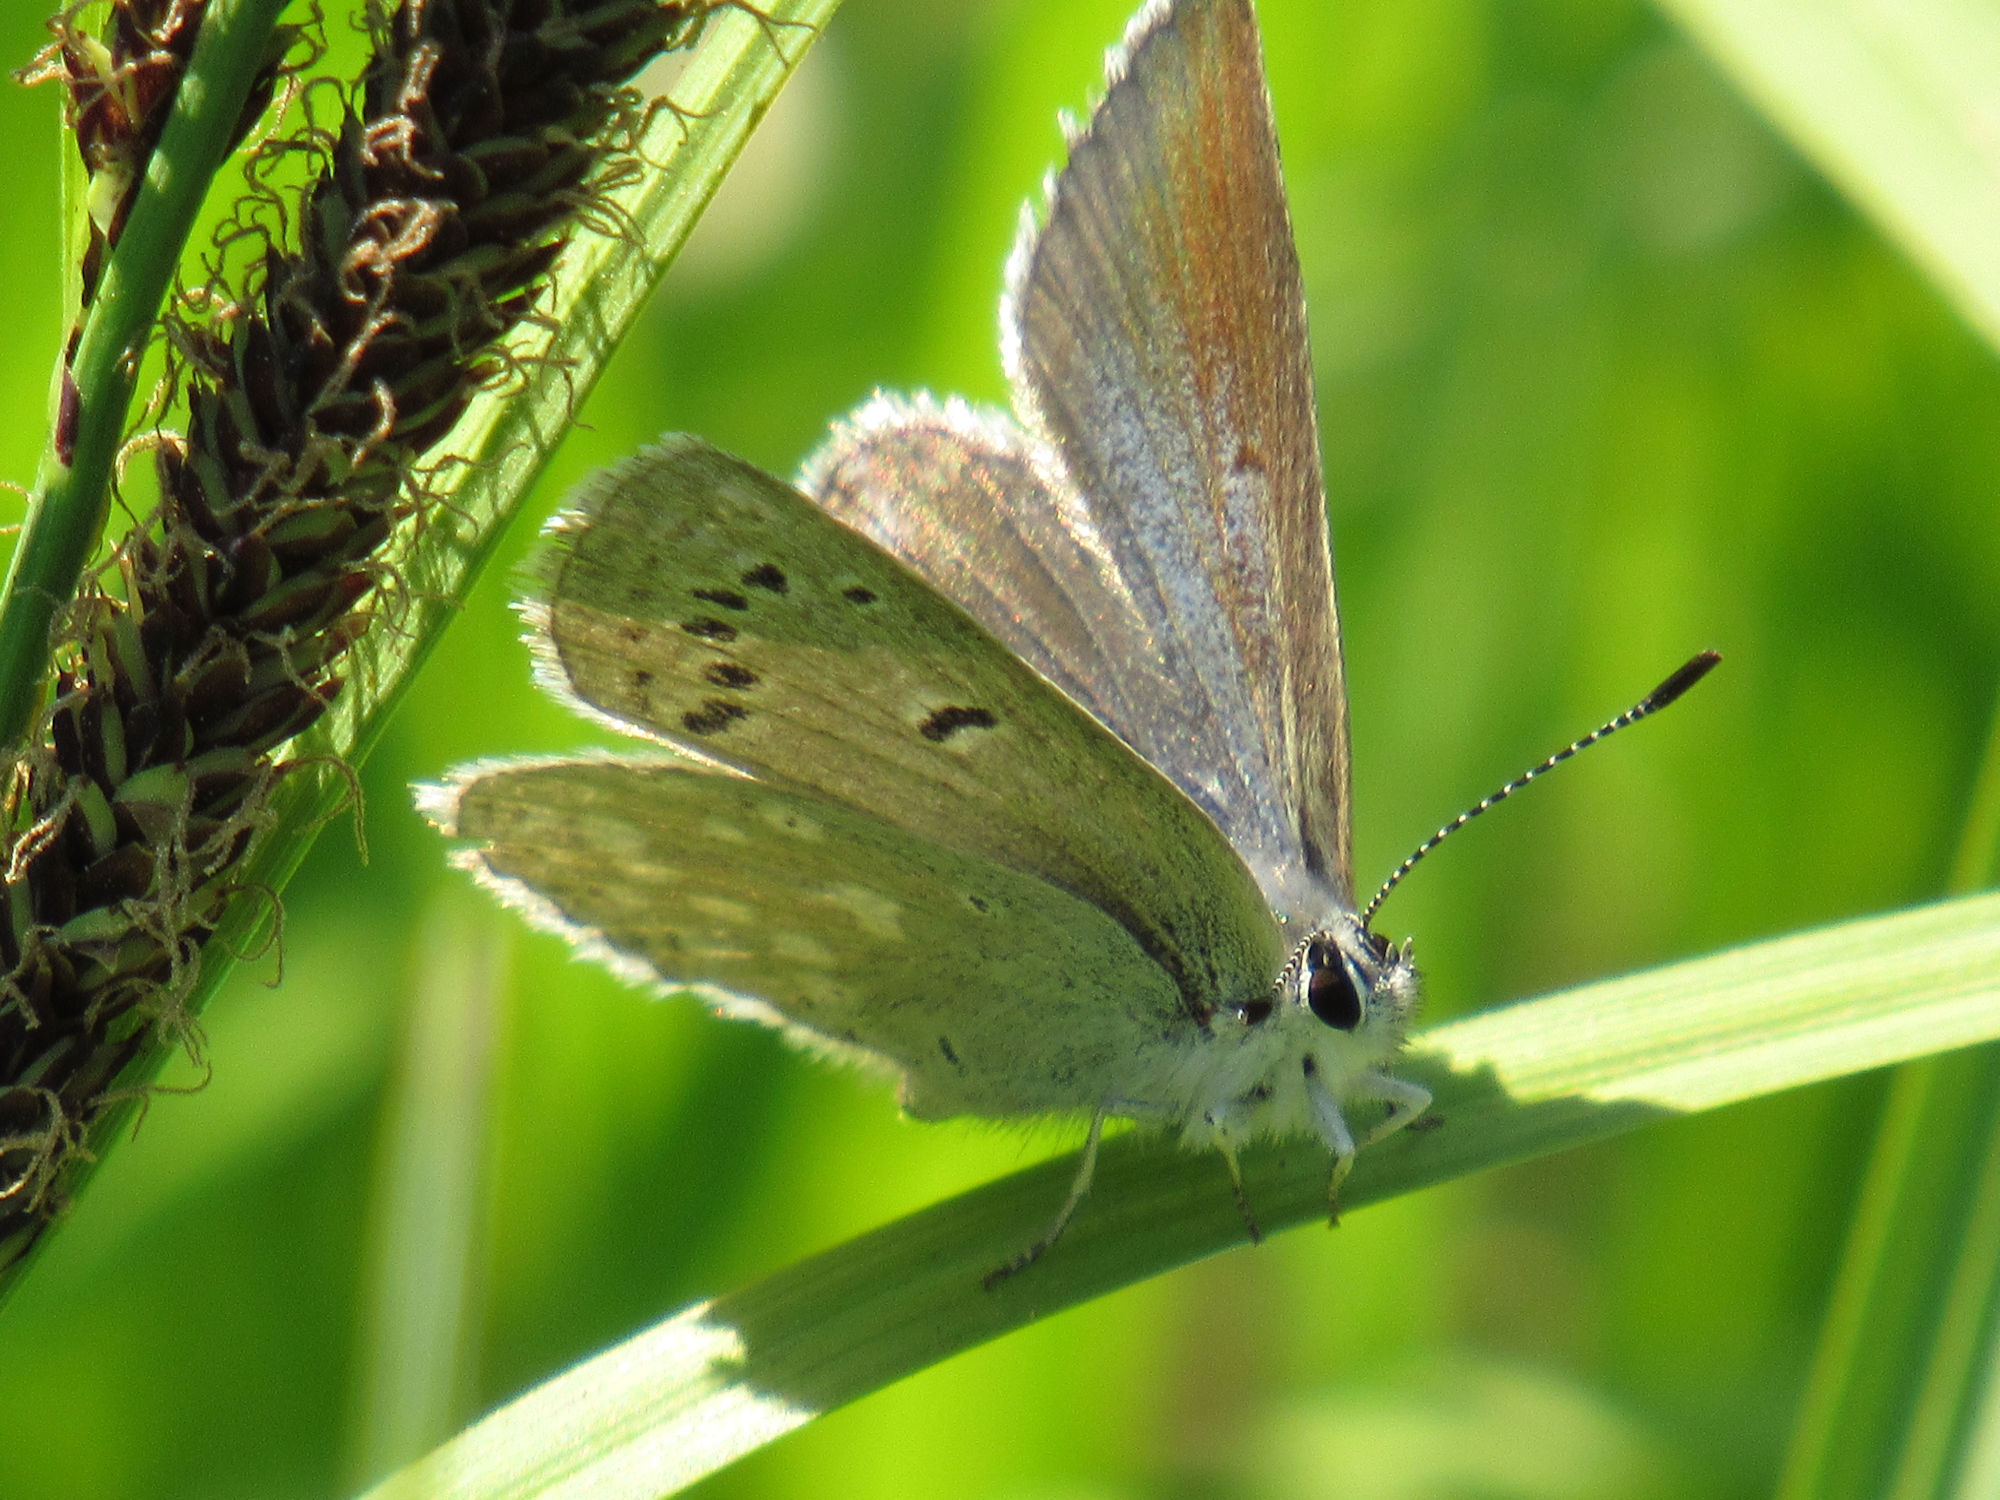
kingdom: Animalia
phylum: Arthropoda
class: Insecta
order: Lepidoptera
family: Lycaenidae
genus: Icaricia
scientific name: Icaricia icarioides
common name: Boisduval's blue
